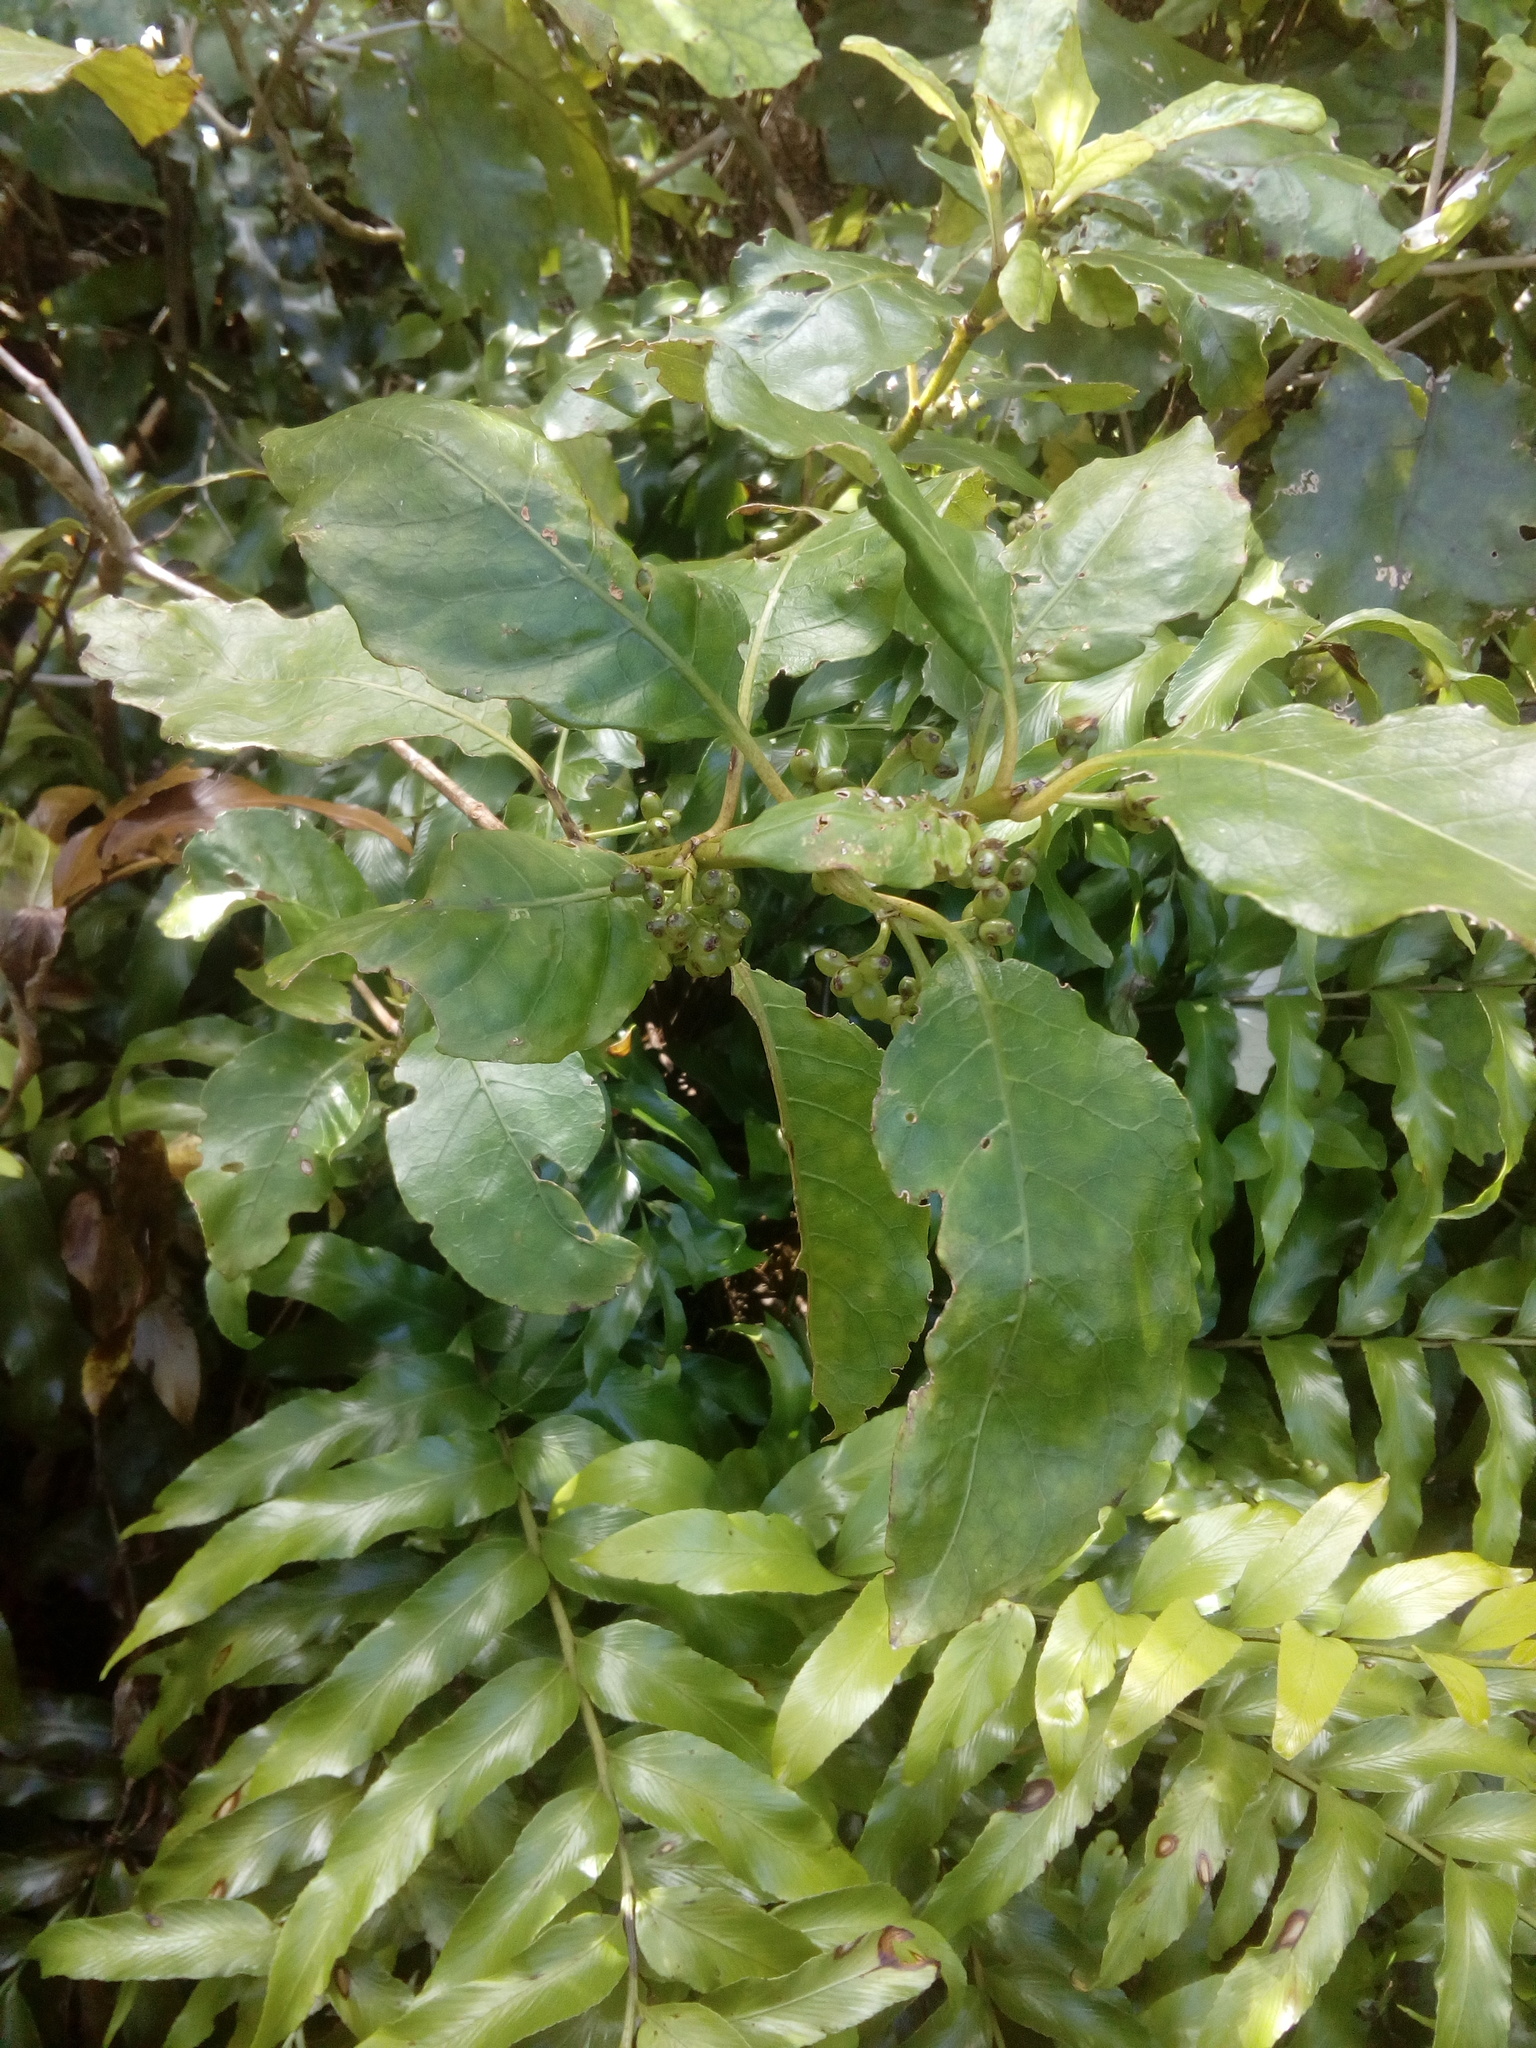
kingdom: Plantae
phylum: Tracheophyta
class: Magnoliopsida
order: Gentianales
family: Rubiaceae
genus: Coprosma
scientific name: Coprosma autumnalis
